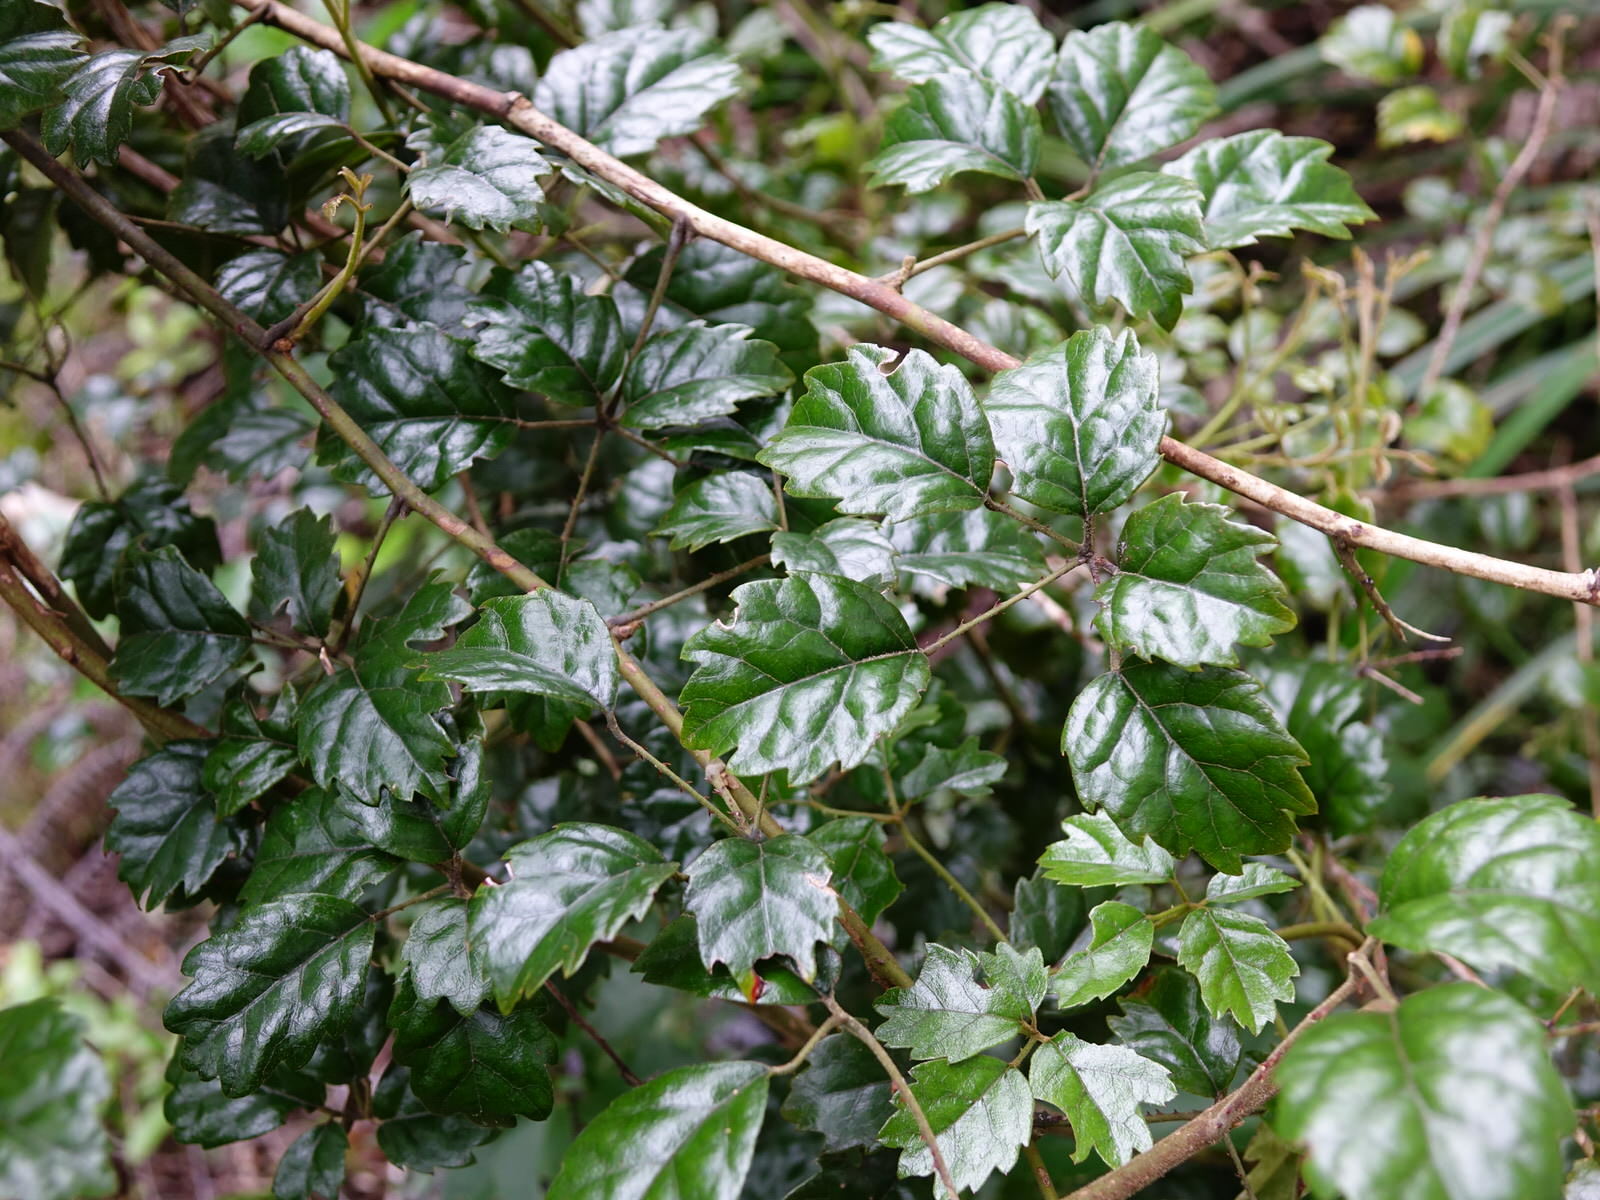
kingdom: Plantae
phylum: Tracheophyta
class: Magnoliopsida
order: Rosales
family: Rosaceae
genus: Rubus
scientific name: Rubus australis
